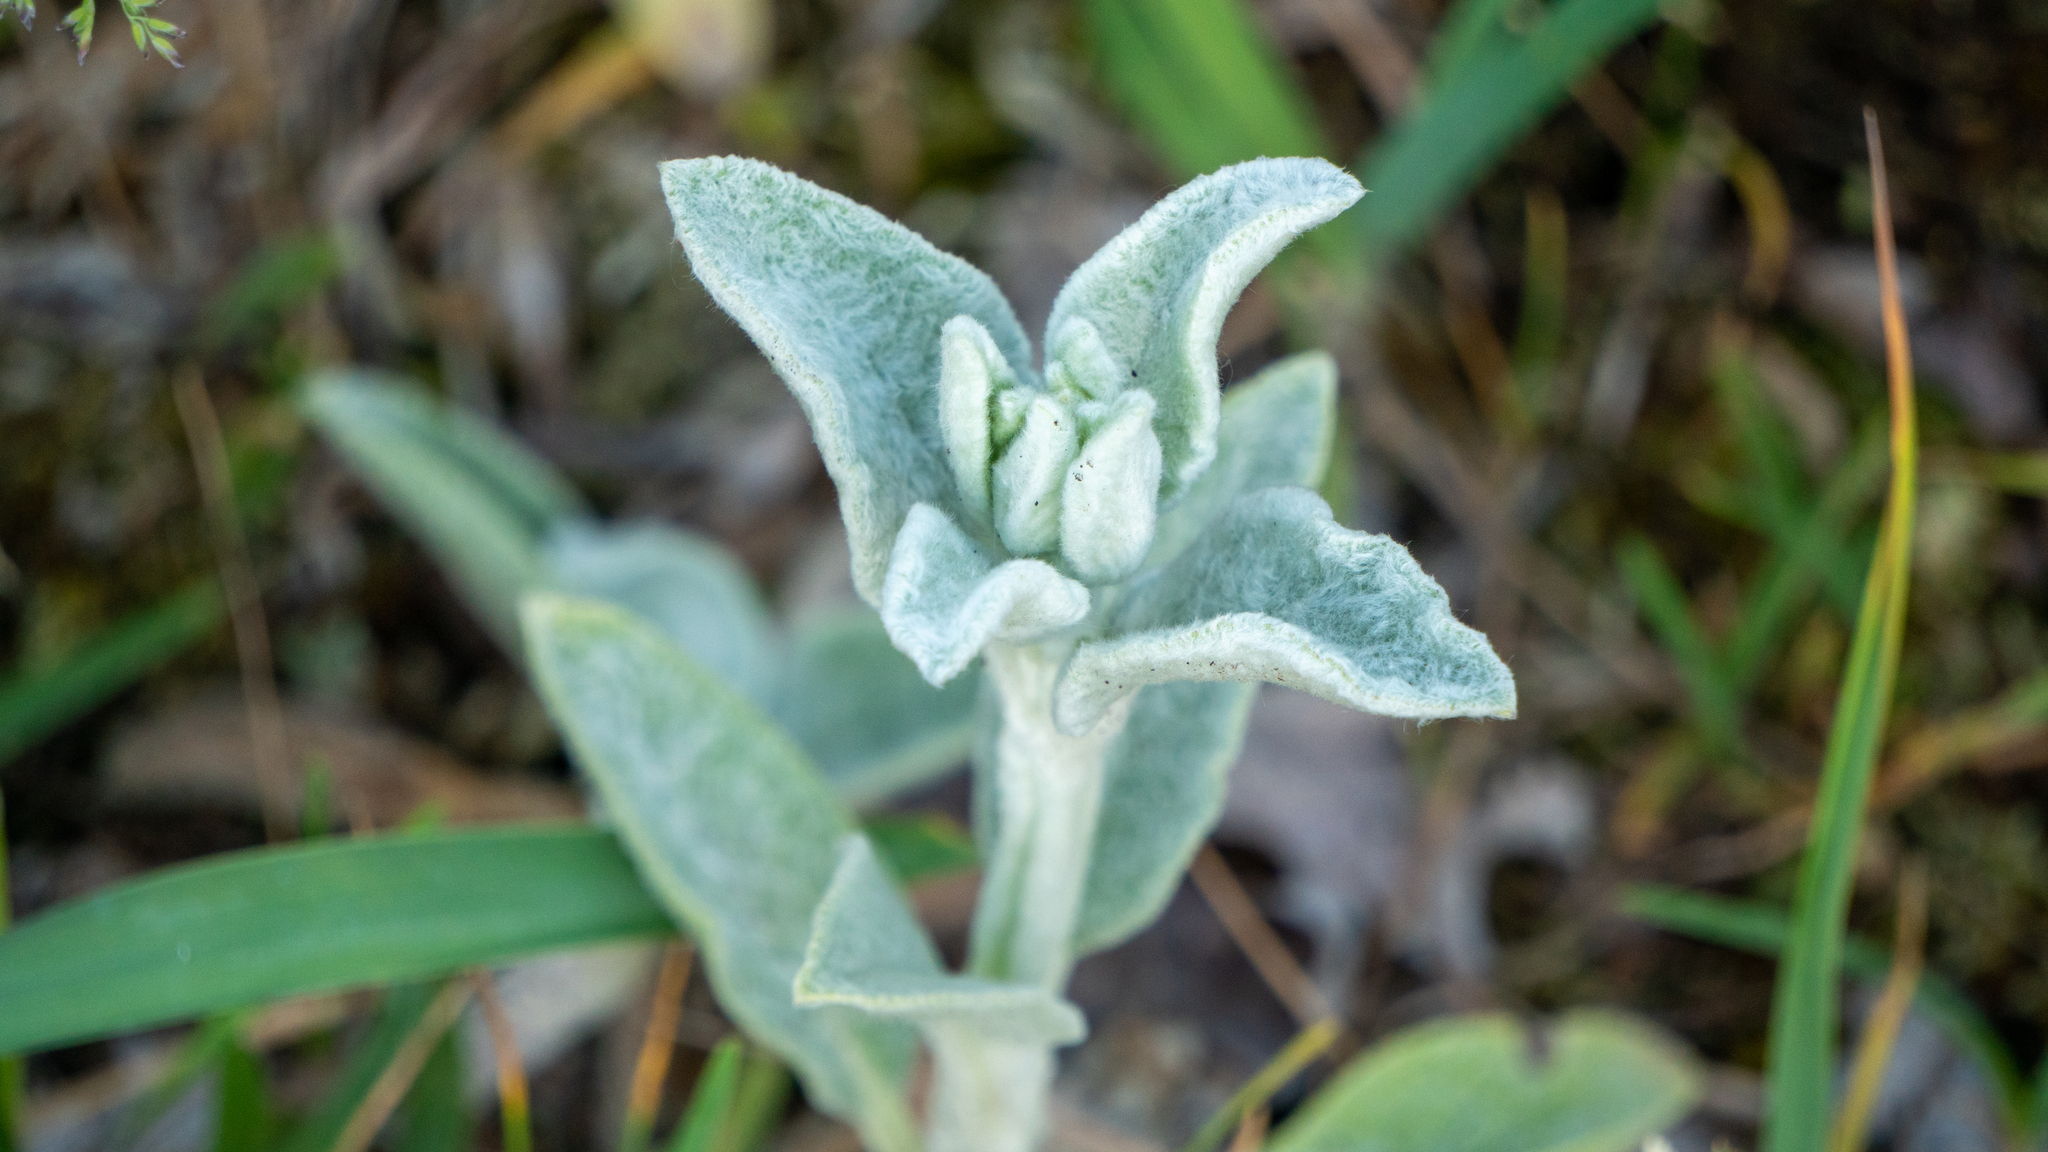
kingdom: Plantae
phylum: Tracheophyta
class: Magnoliopsida
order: Lamiales
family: Lamiaceae
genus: Stachys
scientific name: Stachys byzantina
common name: Lamb's-ear
